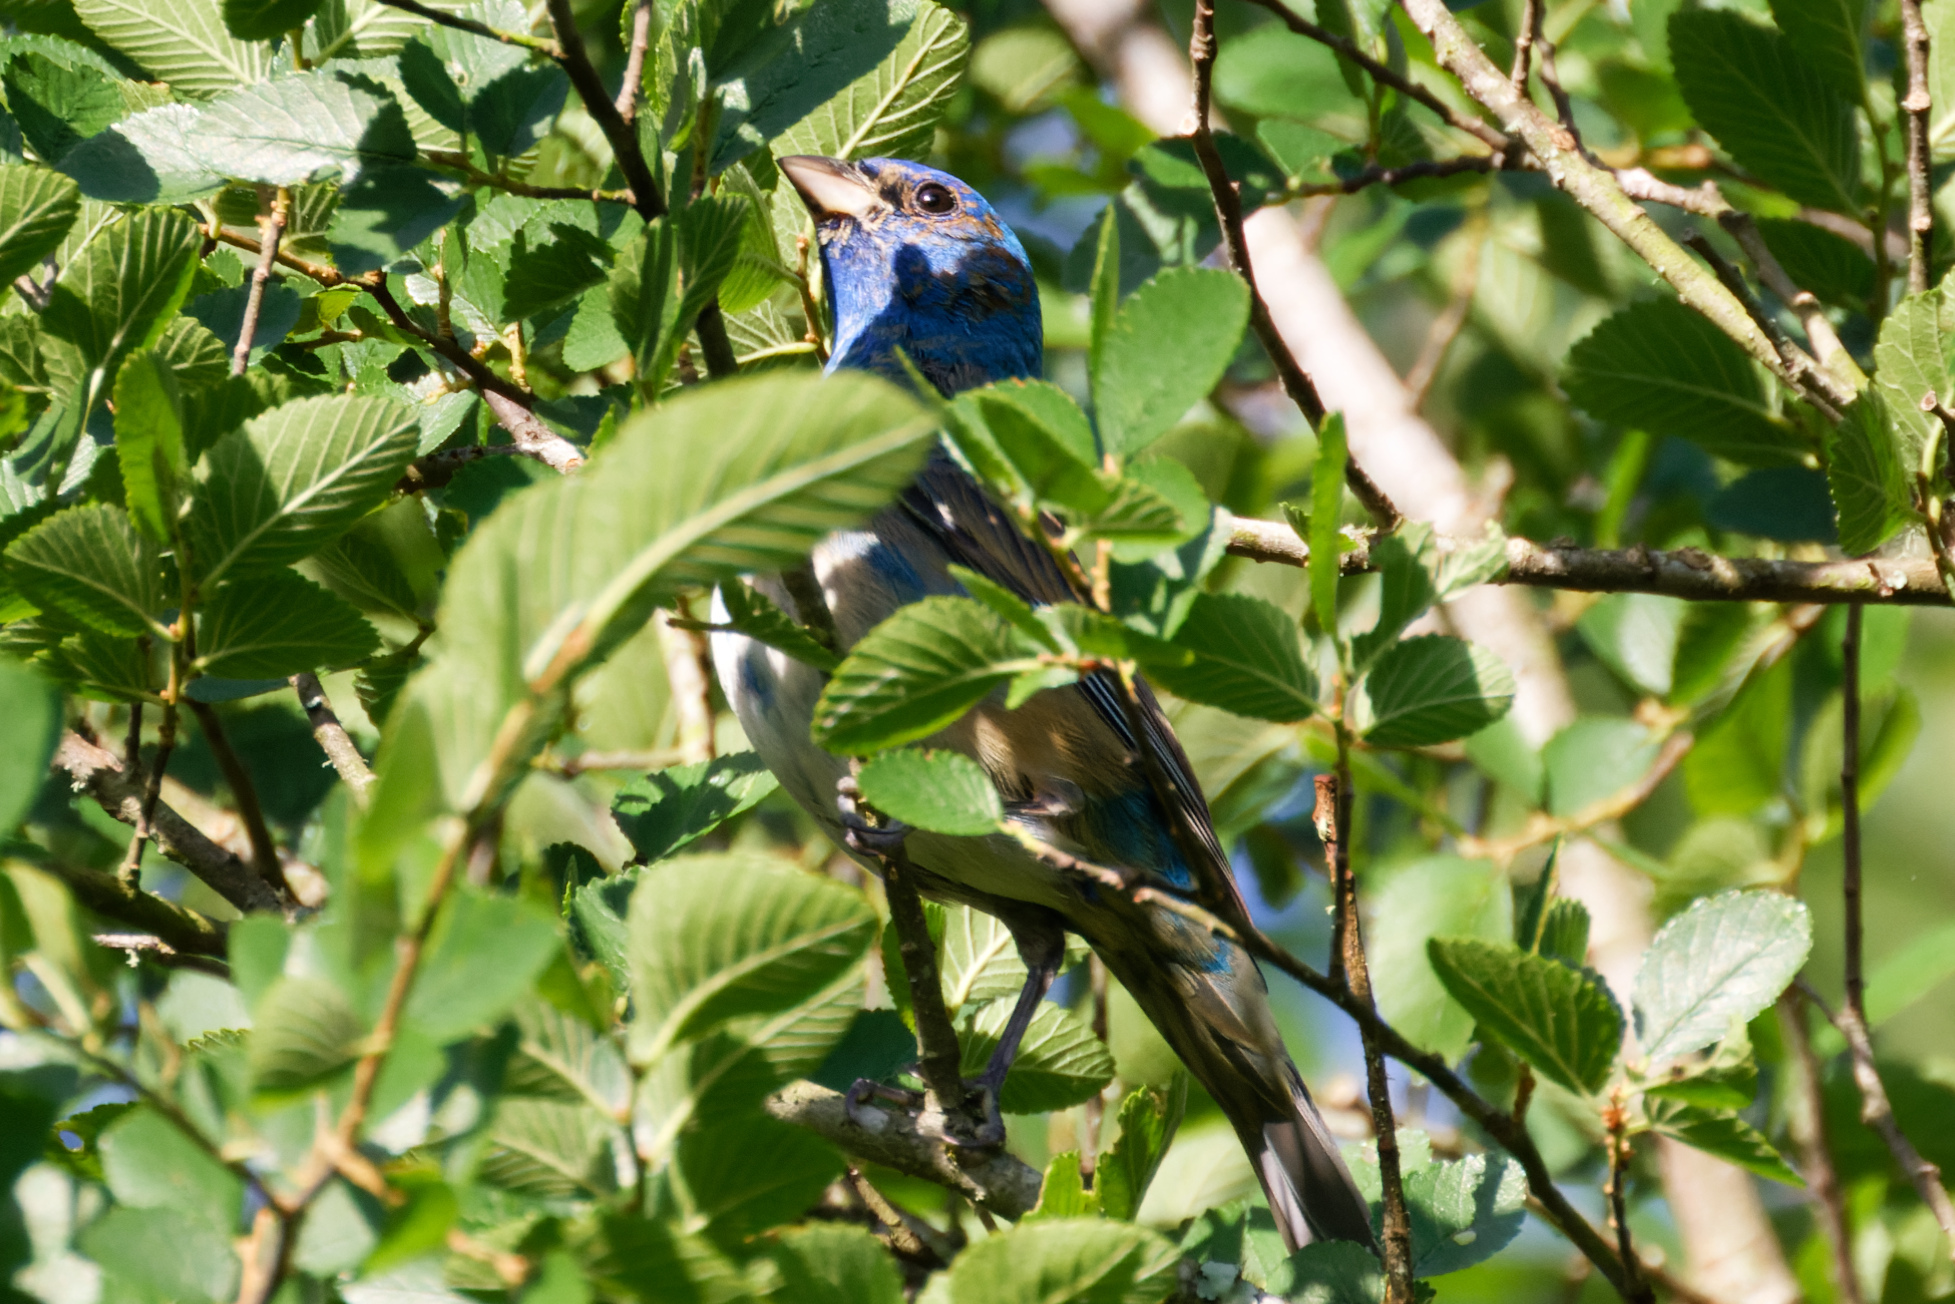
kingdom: Animalia
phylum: Chordata
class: Aves
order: Passeriformes
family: Cardinalidae
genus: Passerina
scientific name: Passerina cyanea
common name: Indigo bunting
